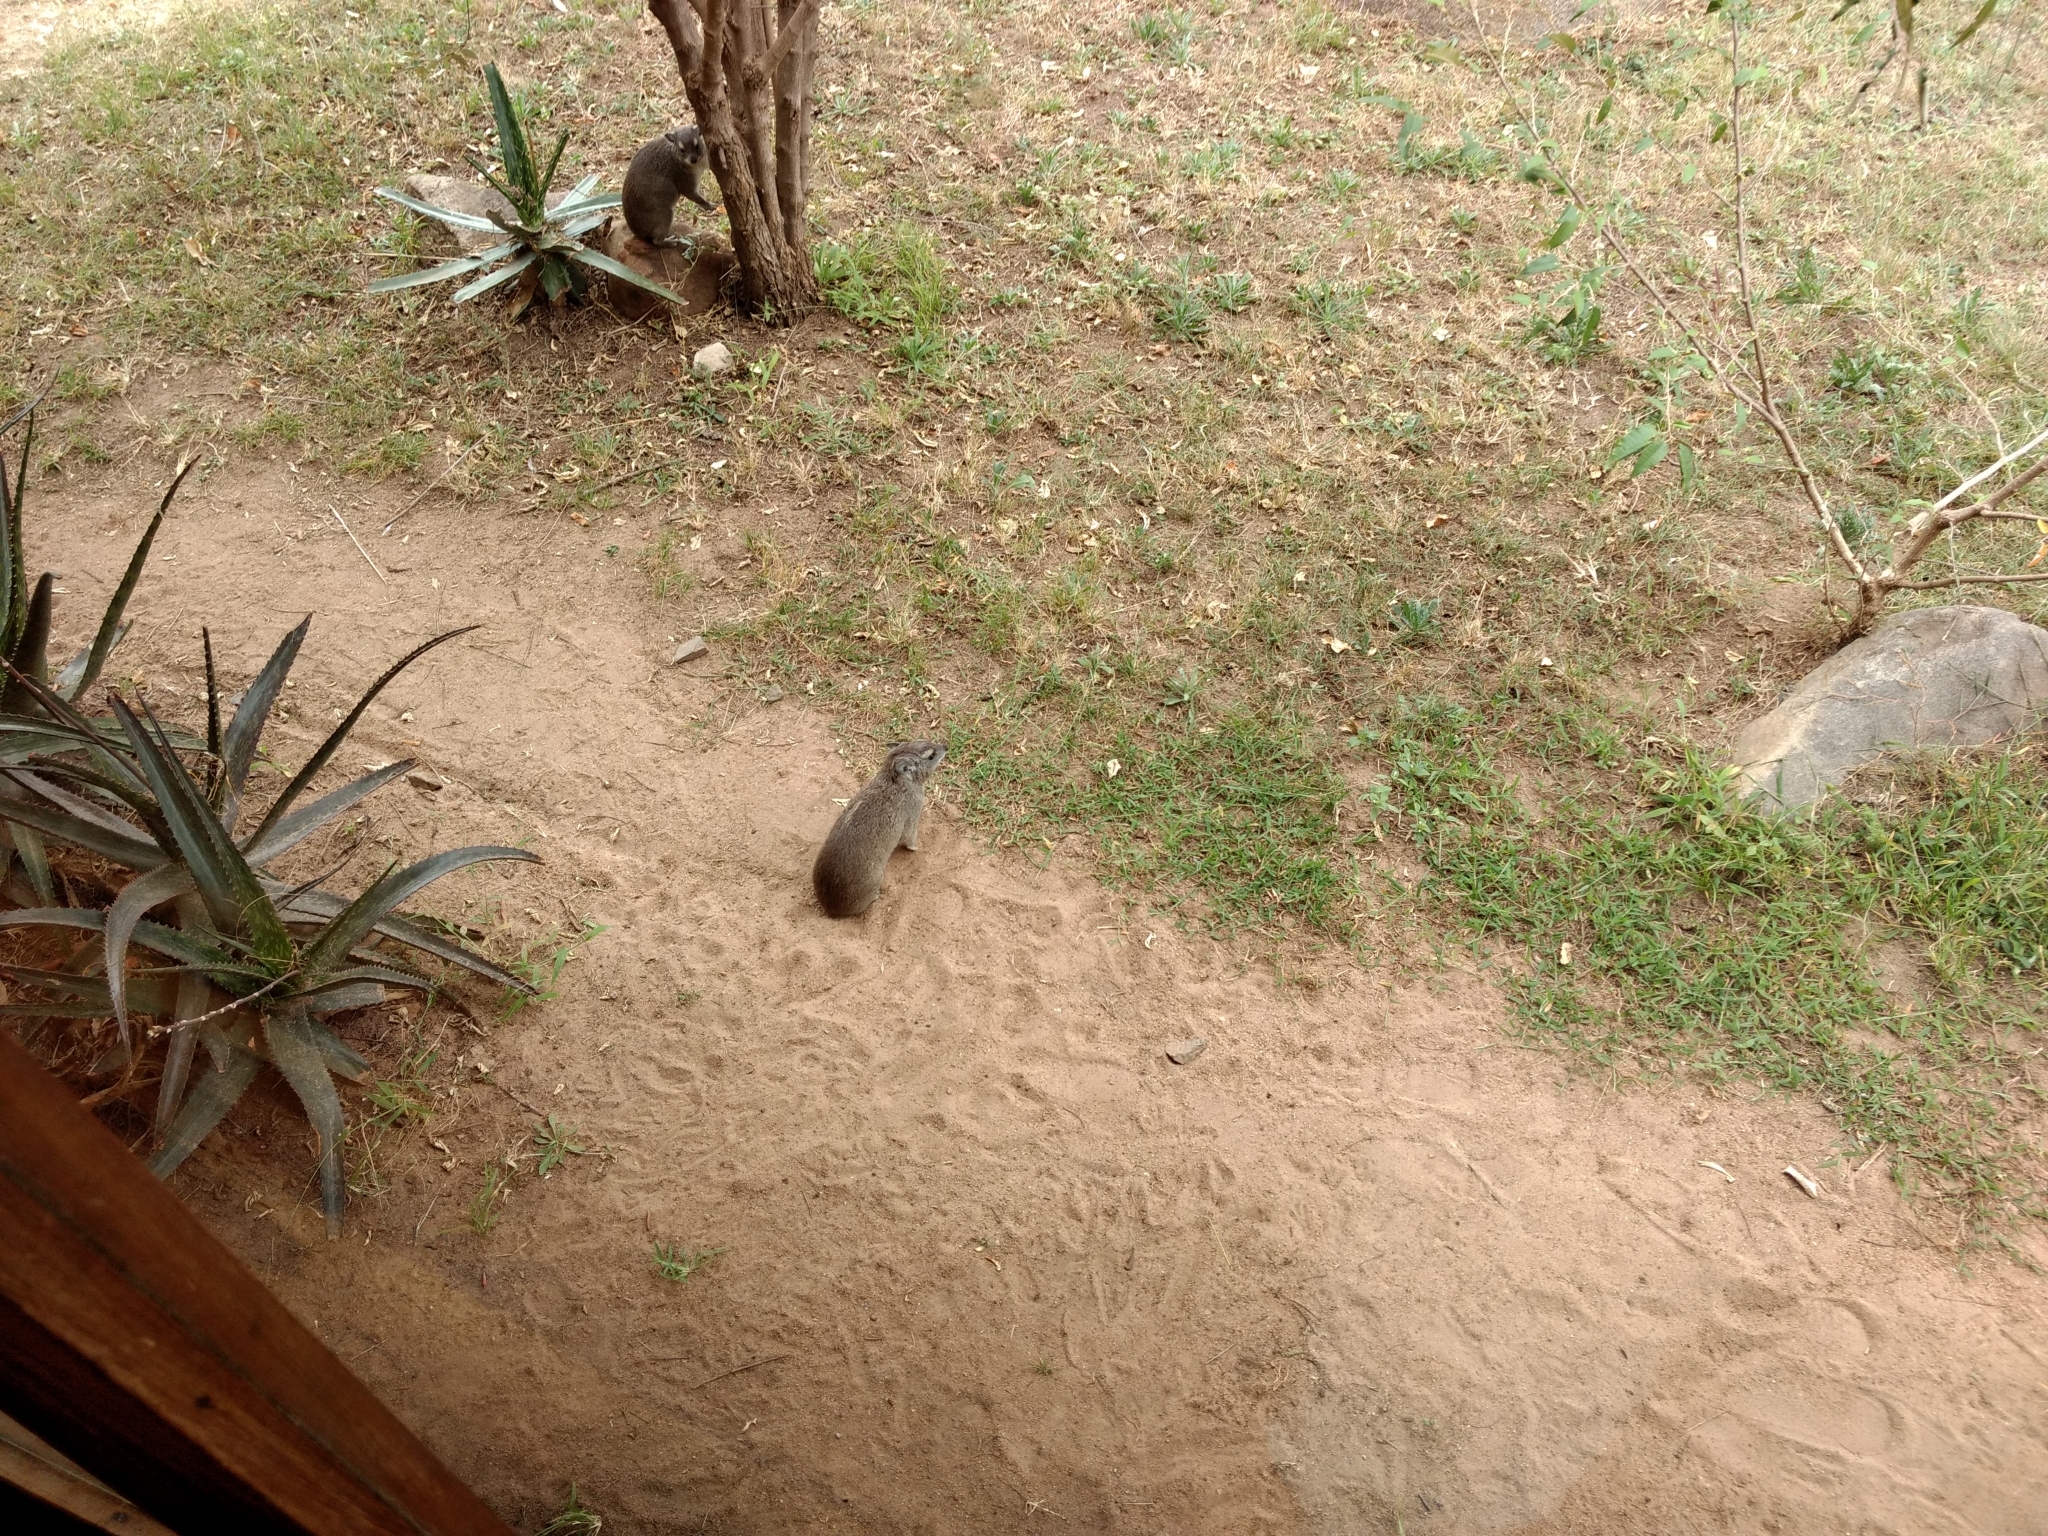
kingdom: Animalia
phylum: Chordata
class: Mammalia
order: Hyracoidea
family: Procaviidae
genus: Heterohyrax
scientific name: Heterohyrax brucei
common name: Bush hyrax
